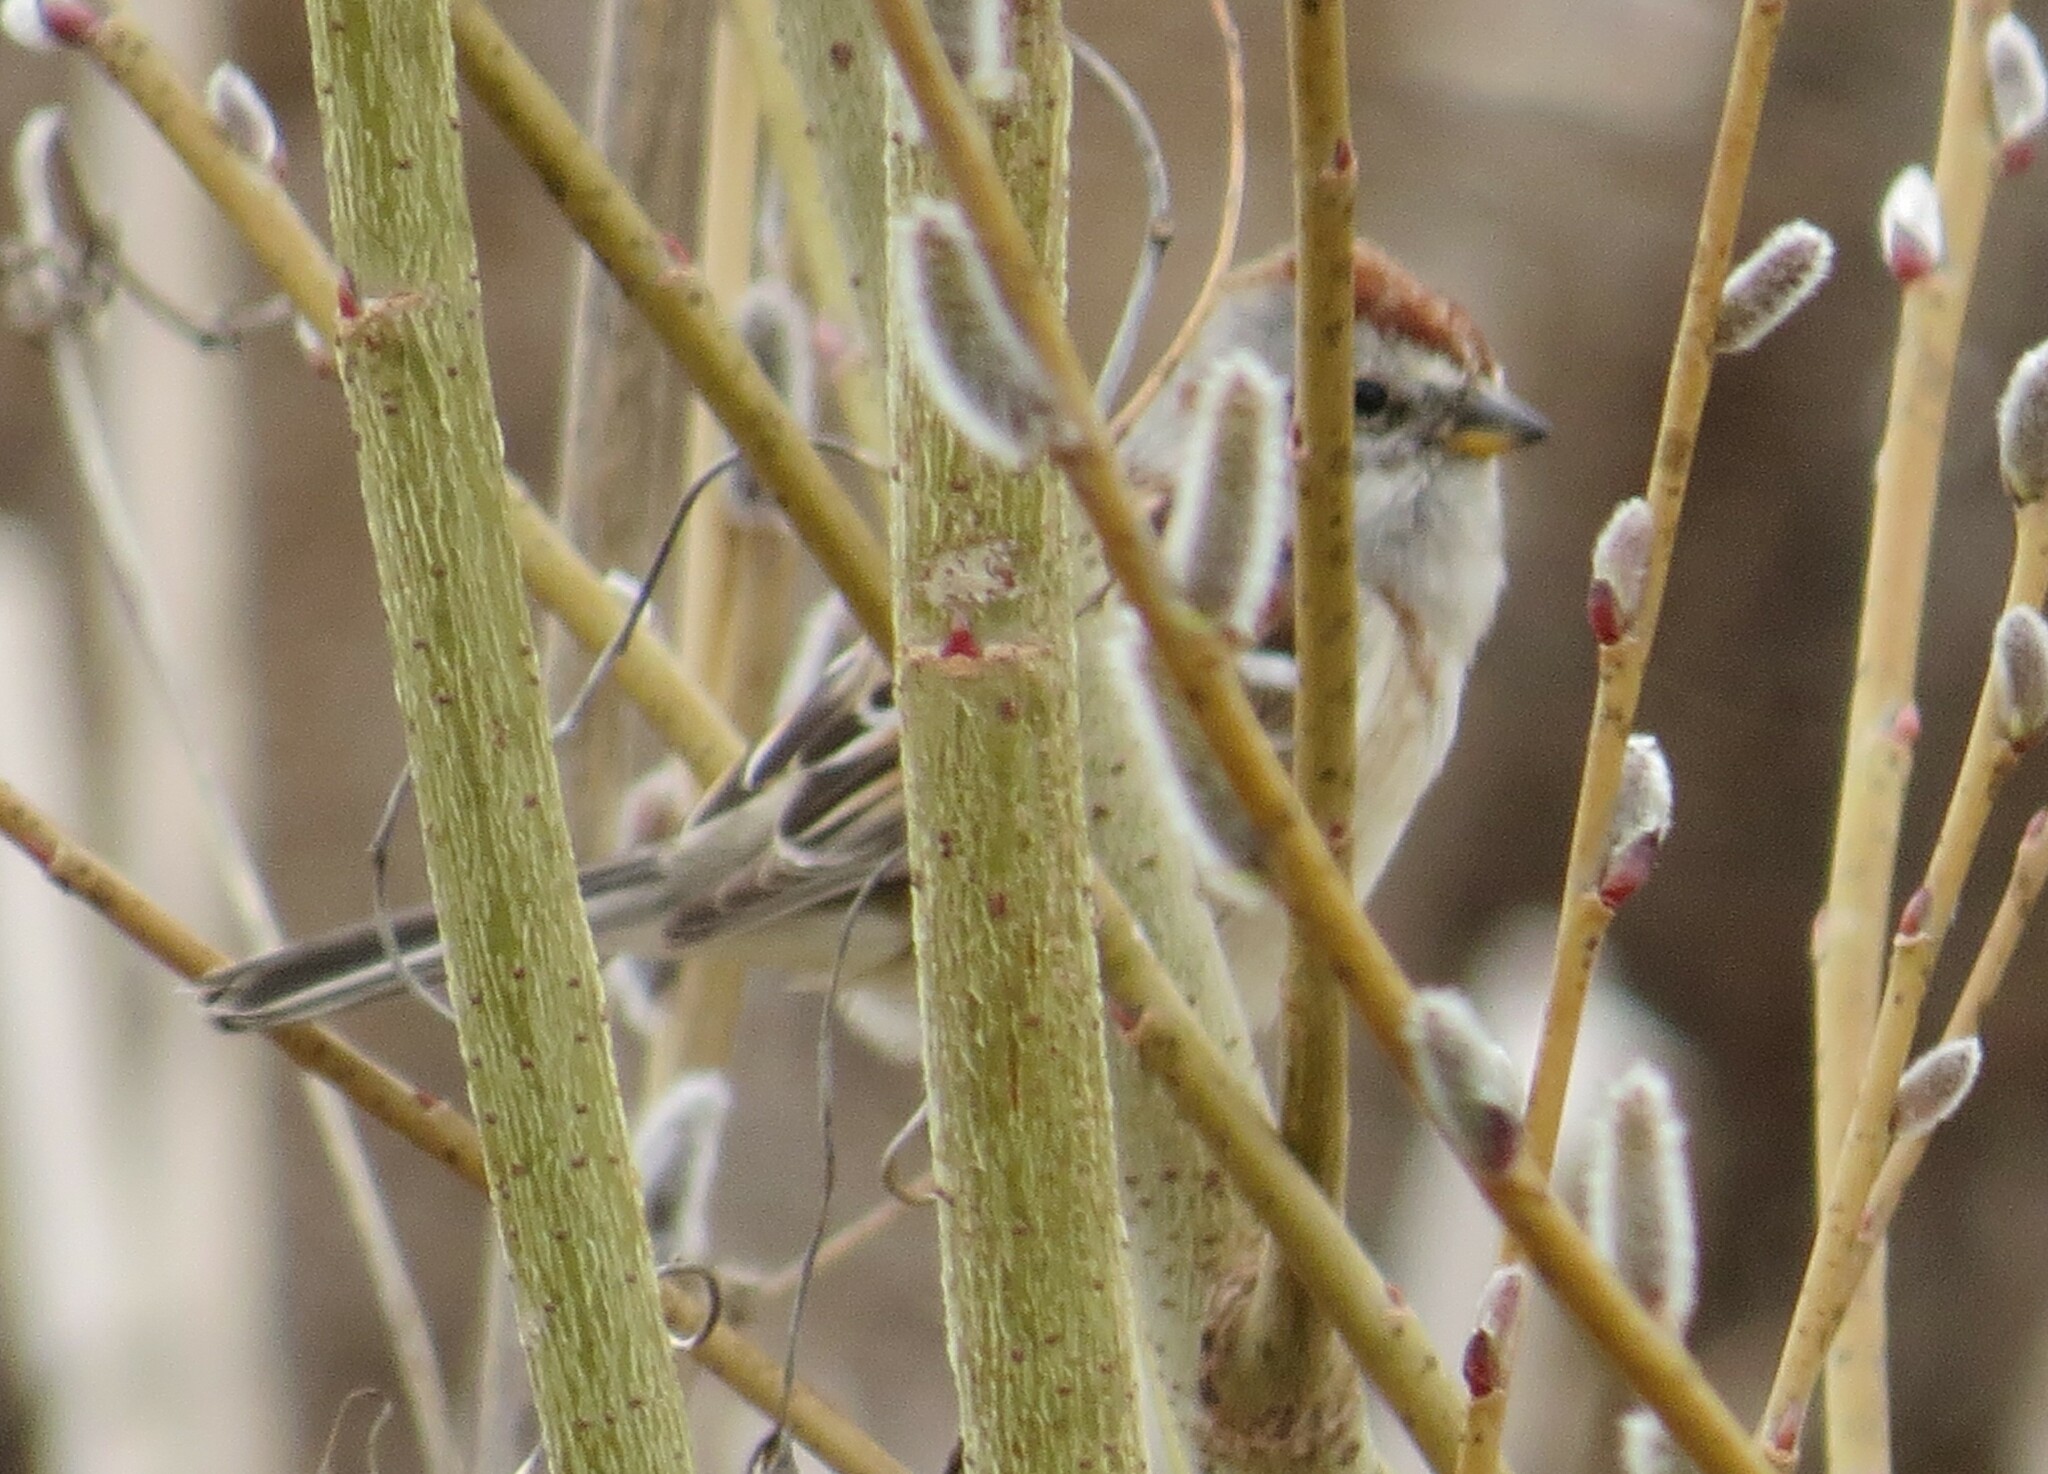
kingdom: Animalia
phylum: Chordata
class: Aves
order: Passeriformes
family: Passerellidae
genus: Spizelloides
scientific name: Spizelloides arborea
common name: American tree sparrow
